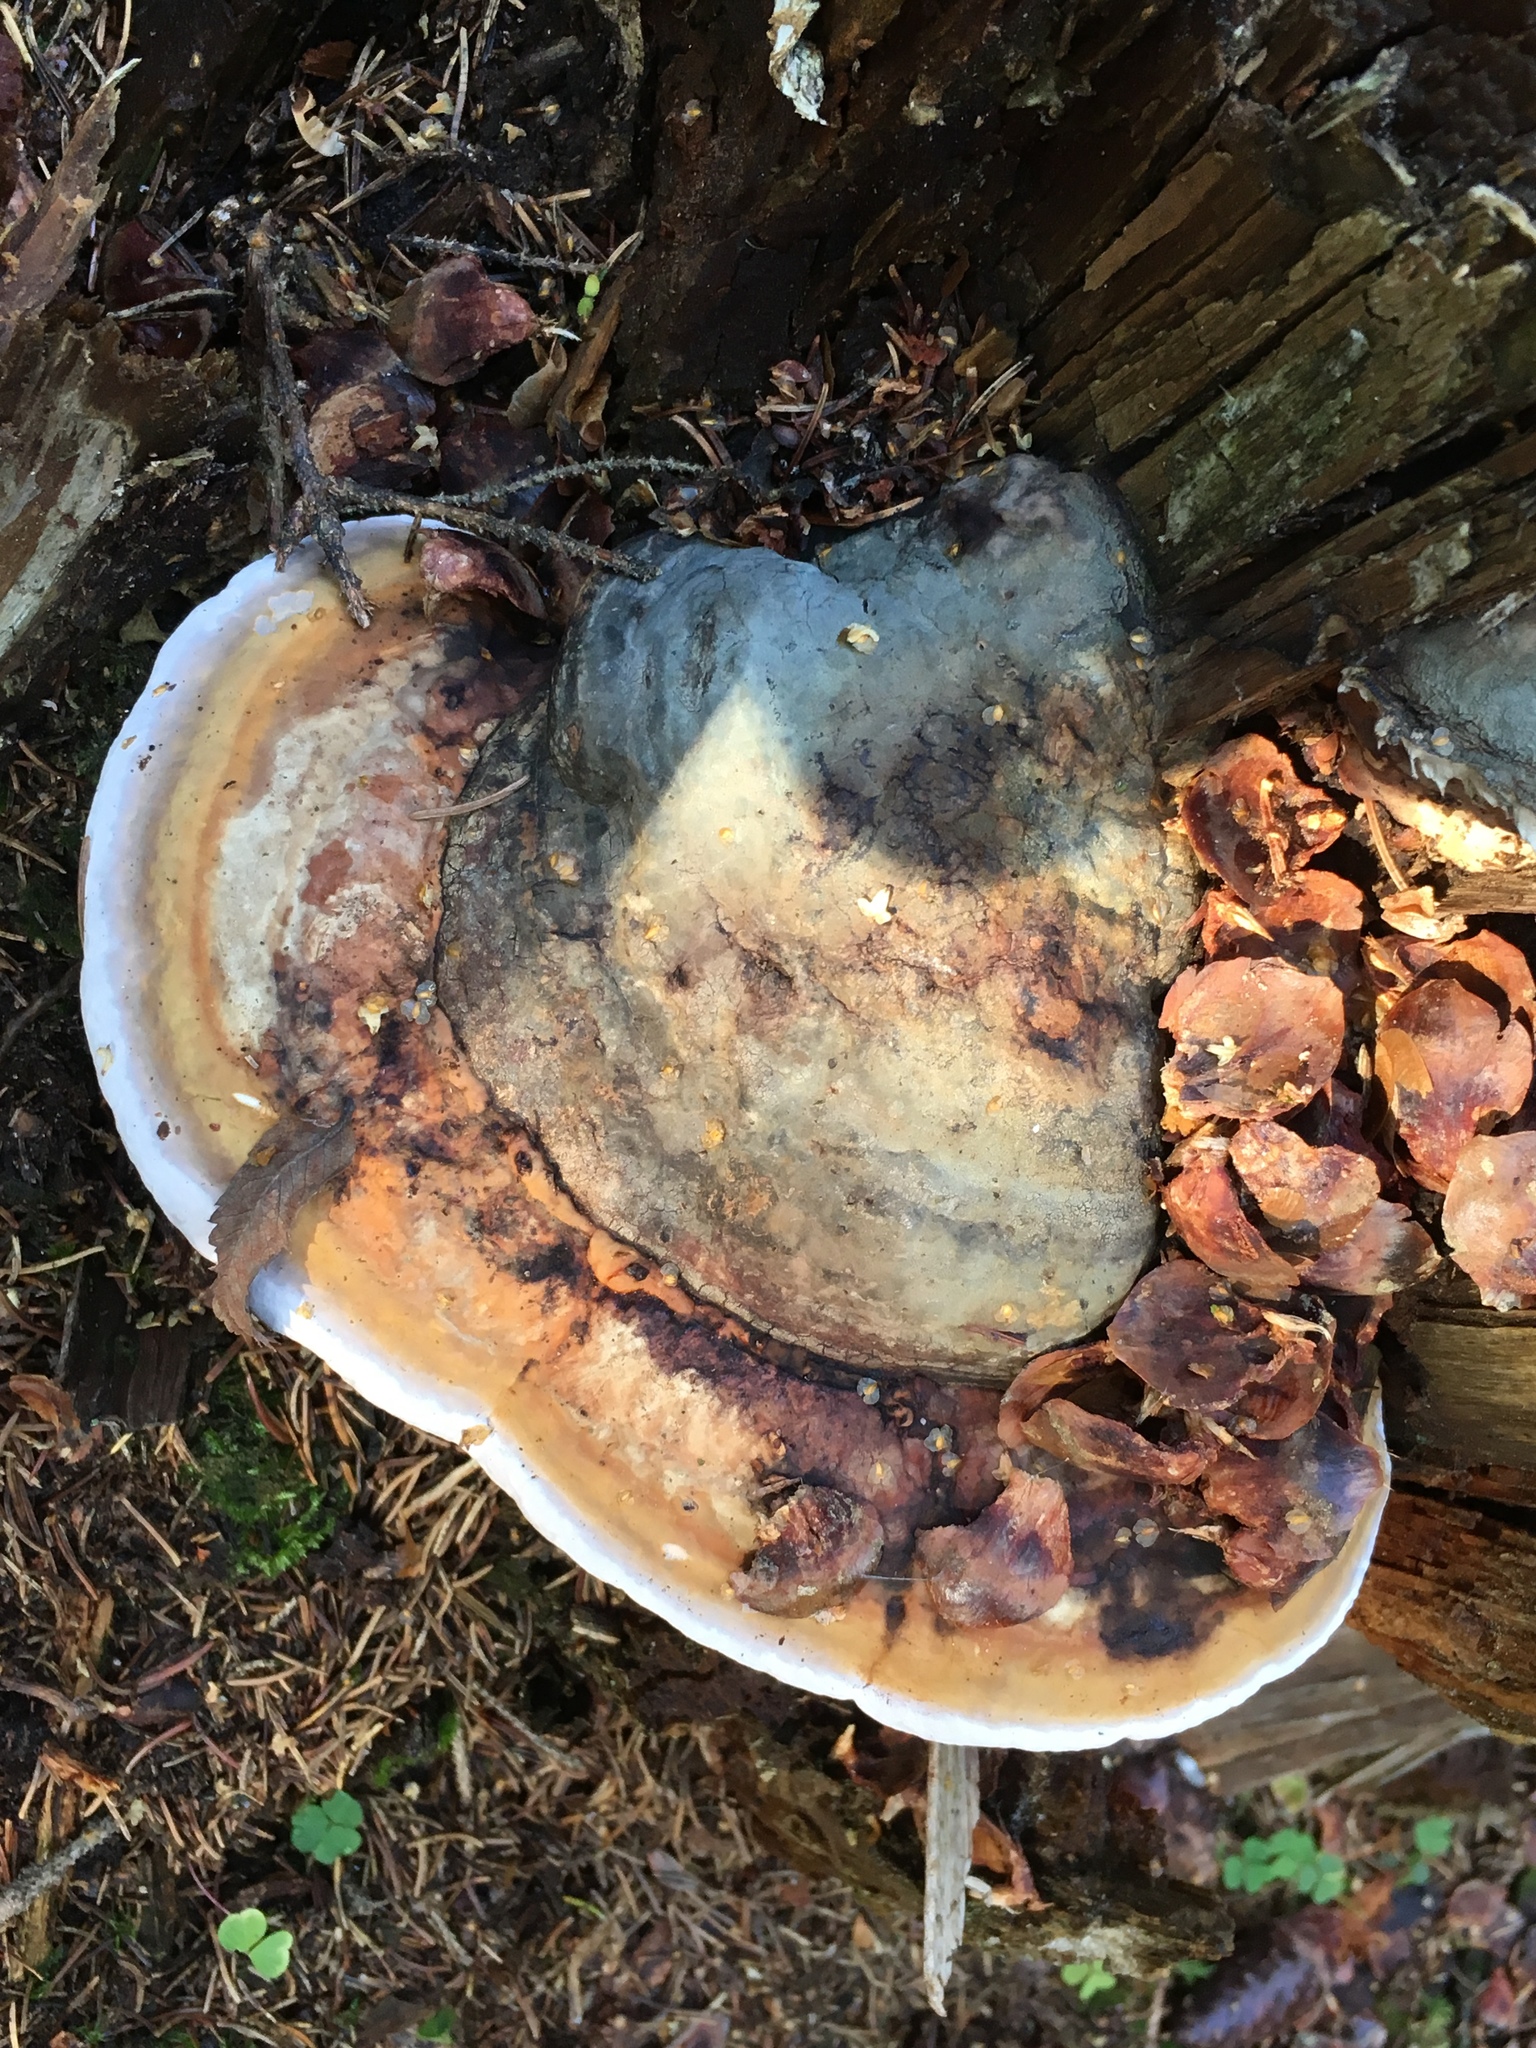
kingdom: Fungi
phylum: Basidiomycota
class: Agaricomycetes
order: Polyporales
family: Fomitopsidaceae
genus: Fomitopsis
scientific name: Fomitopsis pinicola
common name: Red-belted bracket
